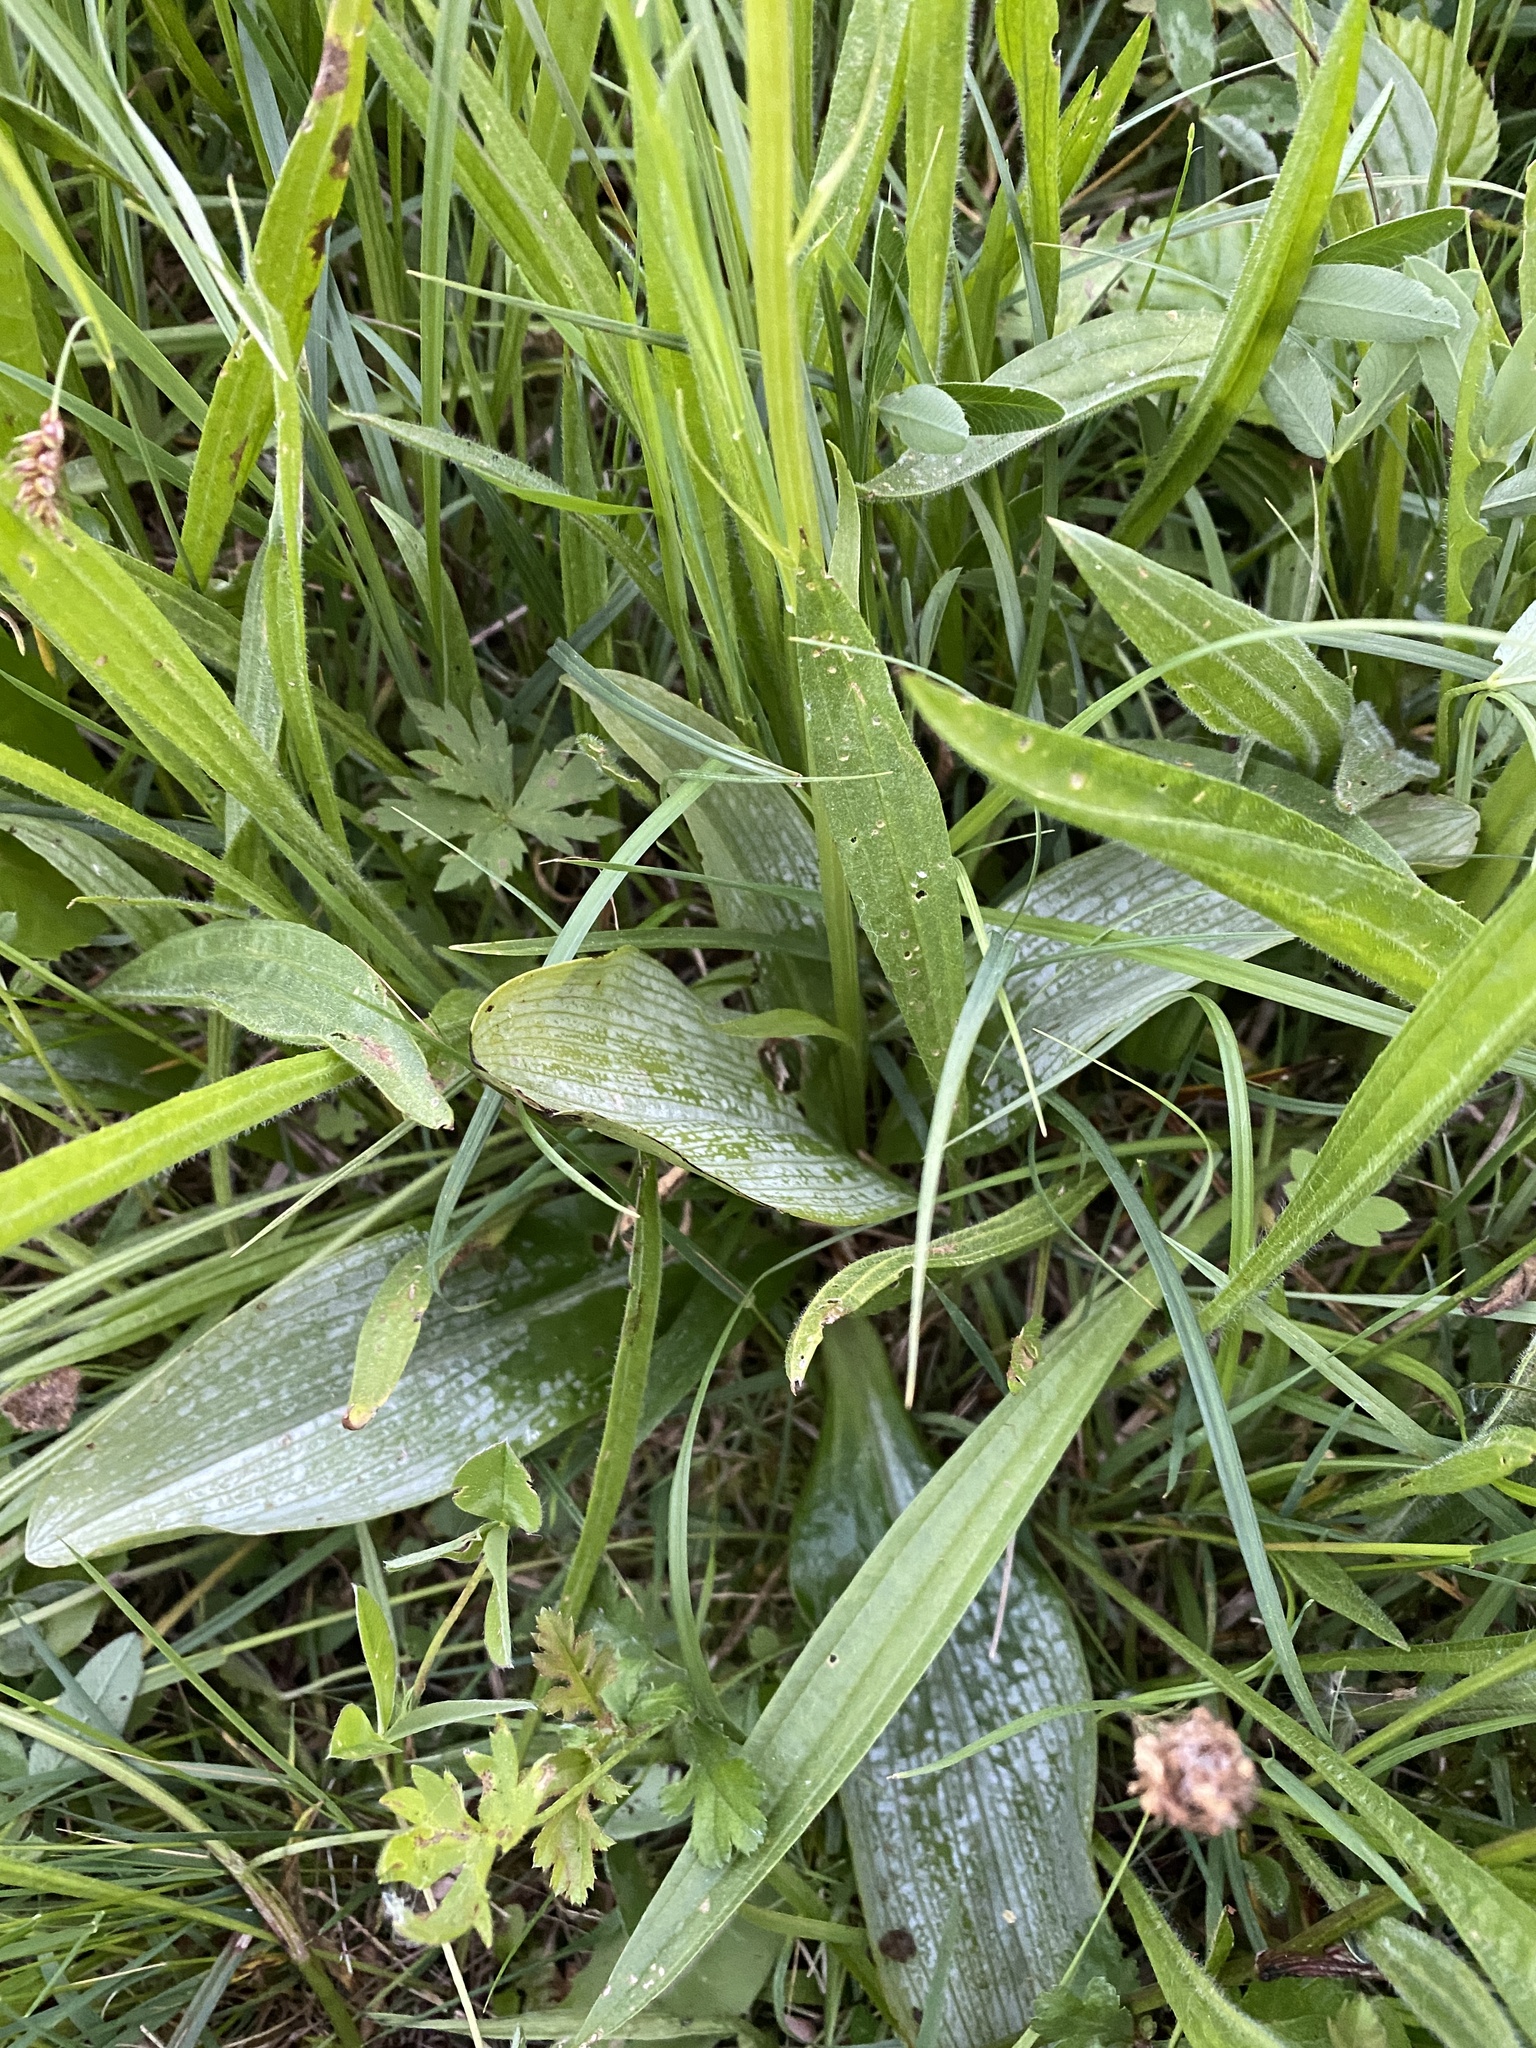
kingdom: Plantae
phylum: Tracheophyta
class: Liliopsida
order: Asparagales
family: Orchidaceae
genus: Platanthera
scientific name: Platanthera chlorantha
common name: Greater butterfly-orchid
